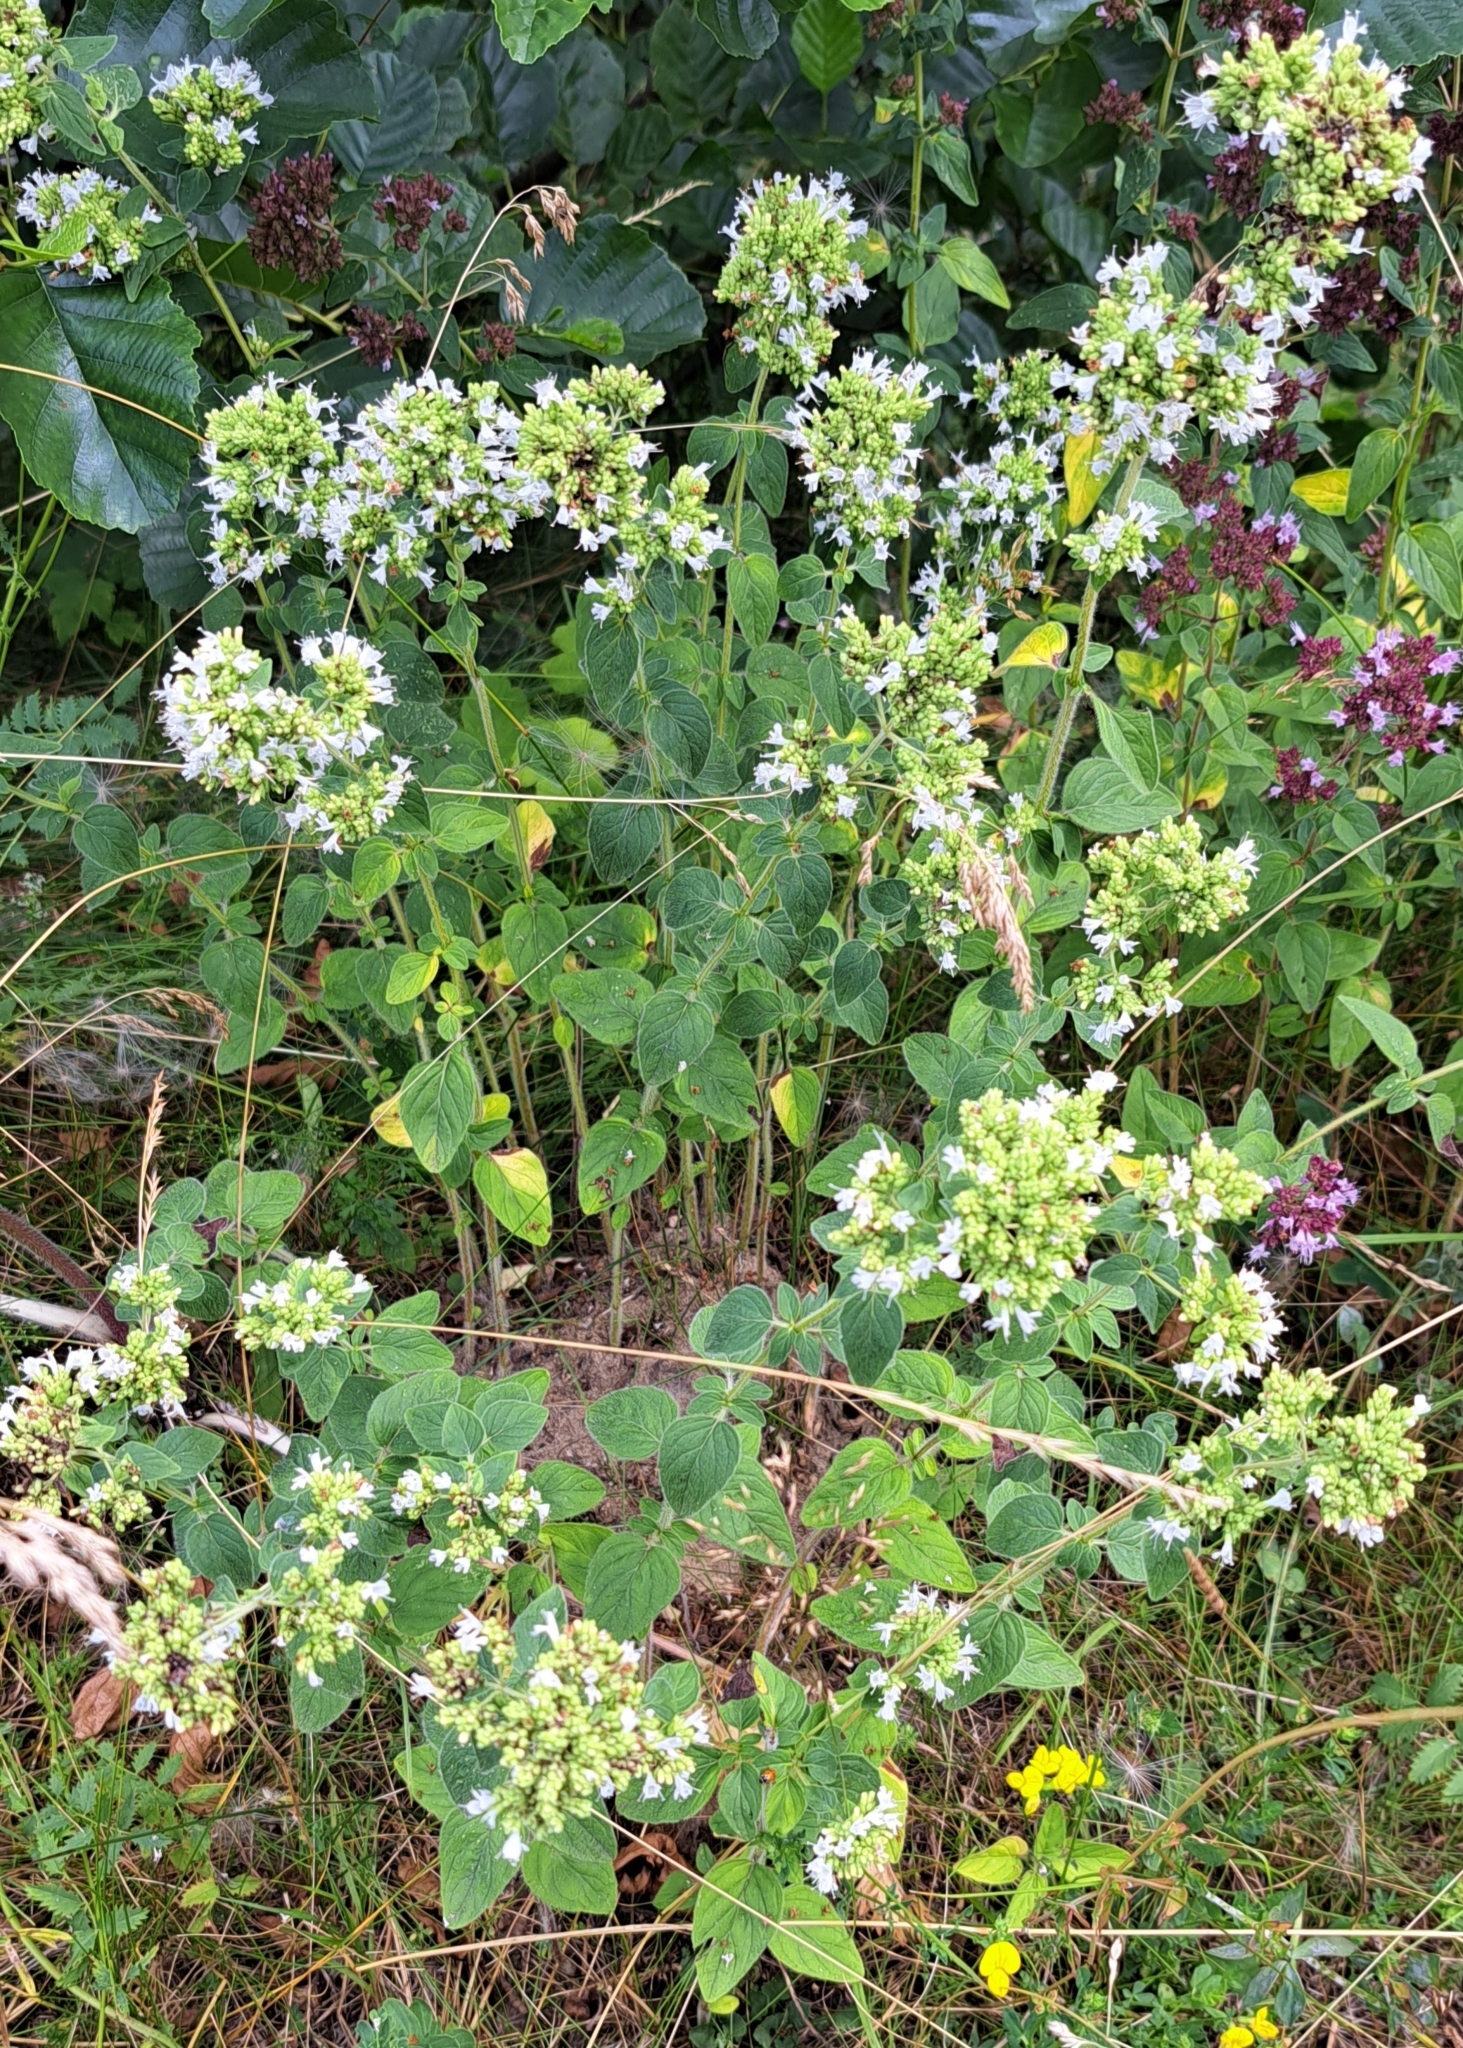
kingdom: Plantae
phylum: Tracheophyta
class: Magnoliopsida
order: Lamiales
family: Lamiaceae
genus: Origanum
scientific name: Origanum vulgare
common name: Wild marjoram
